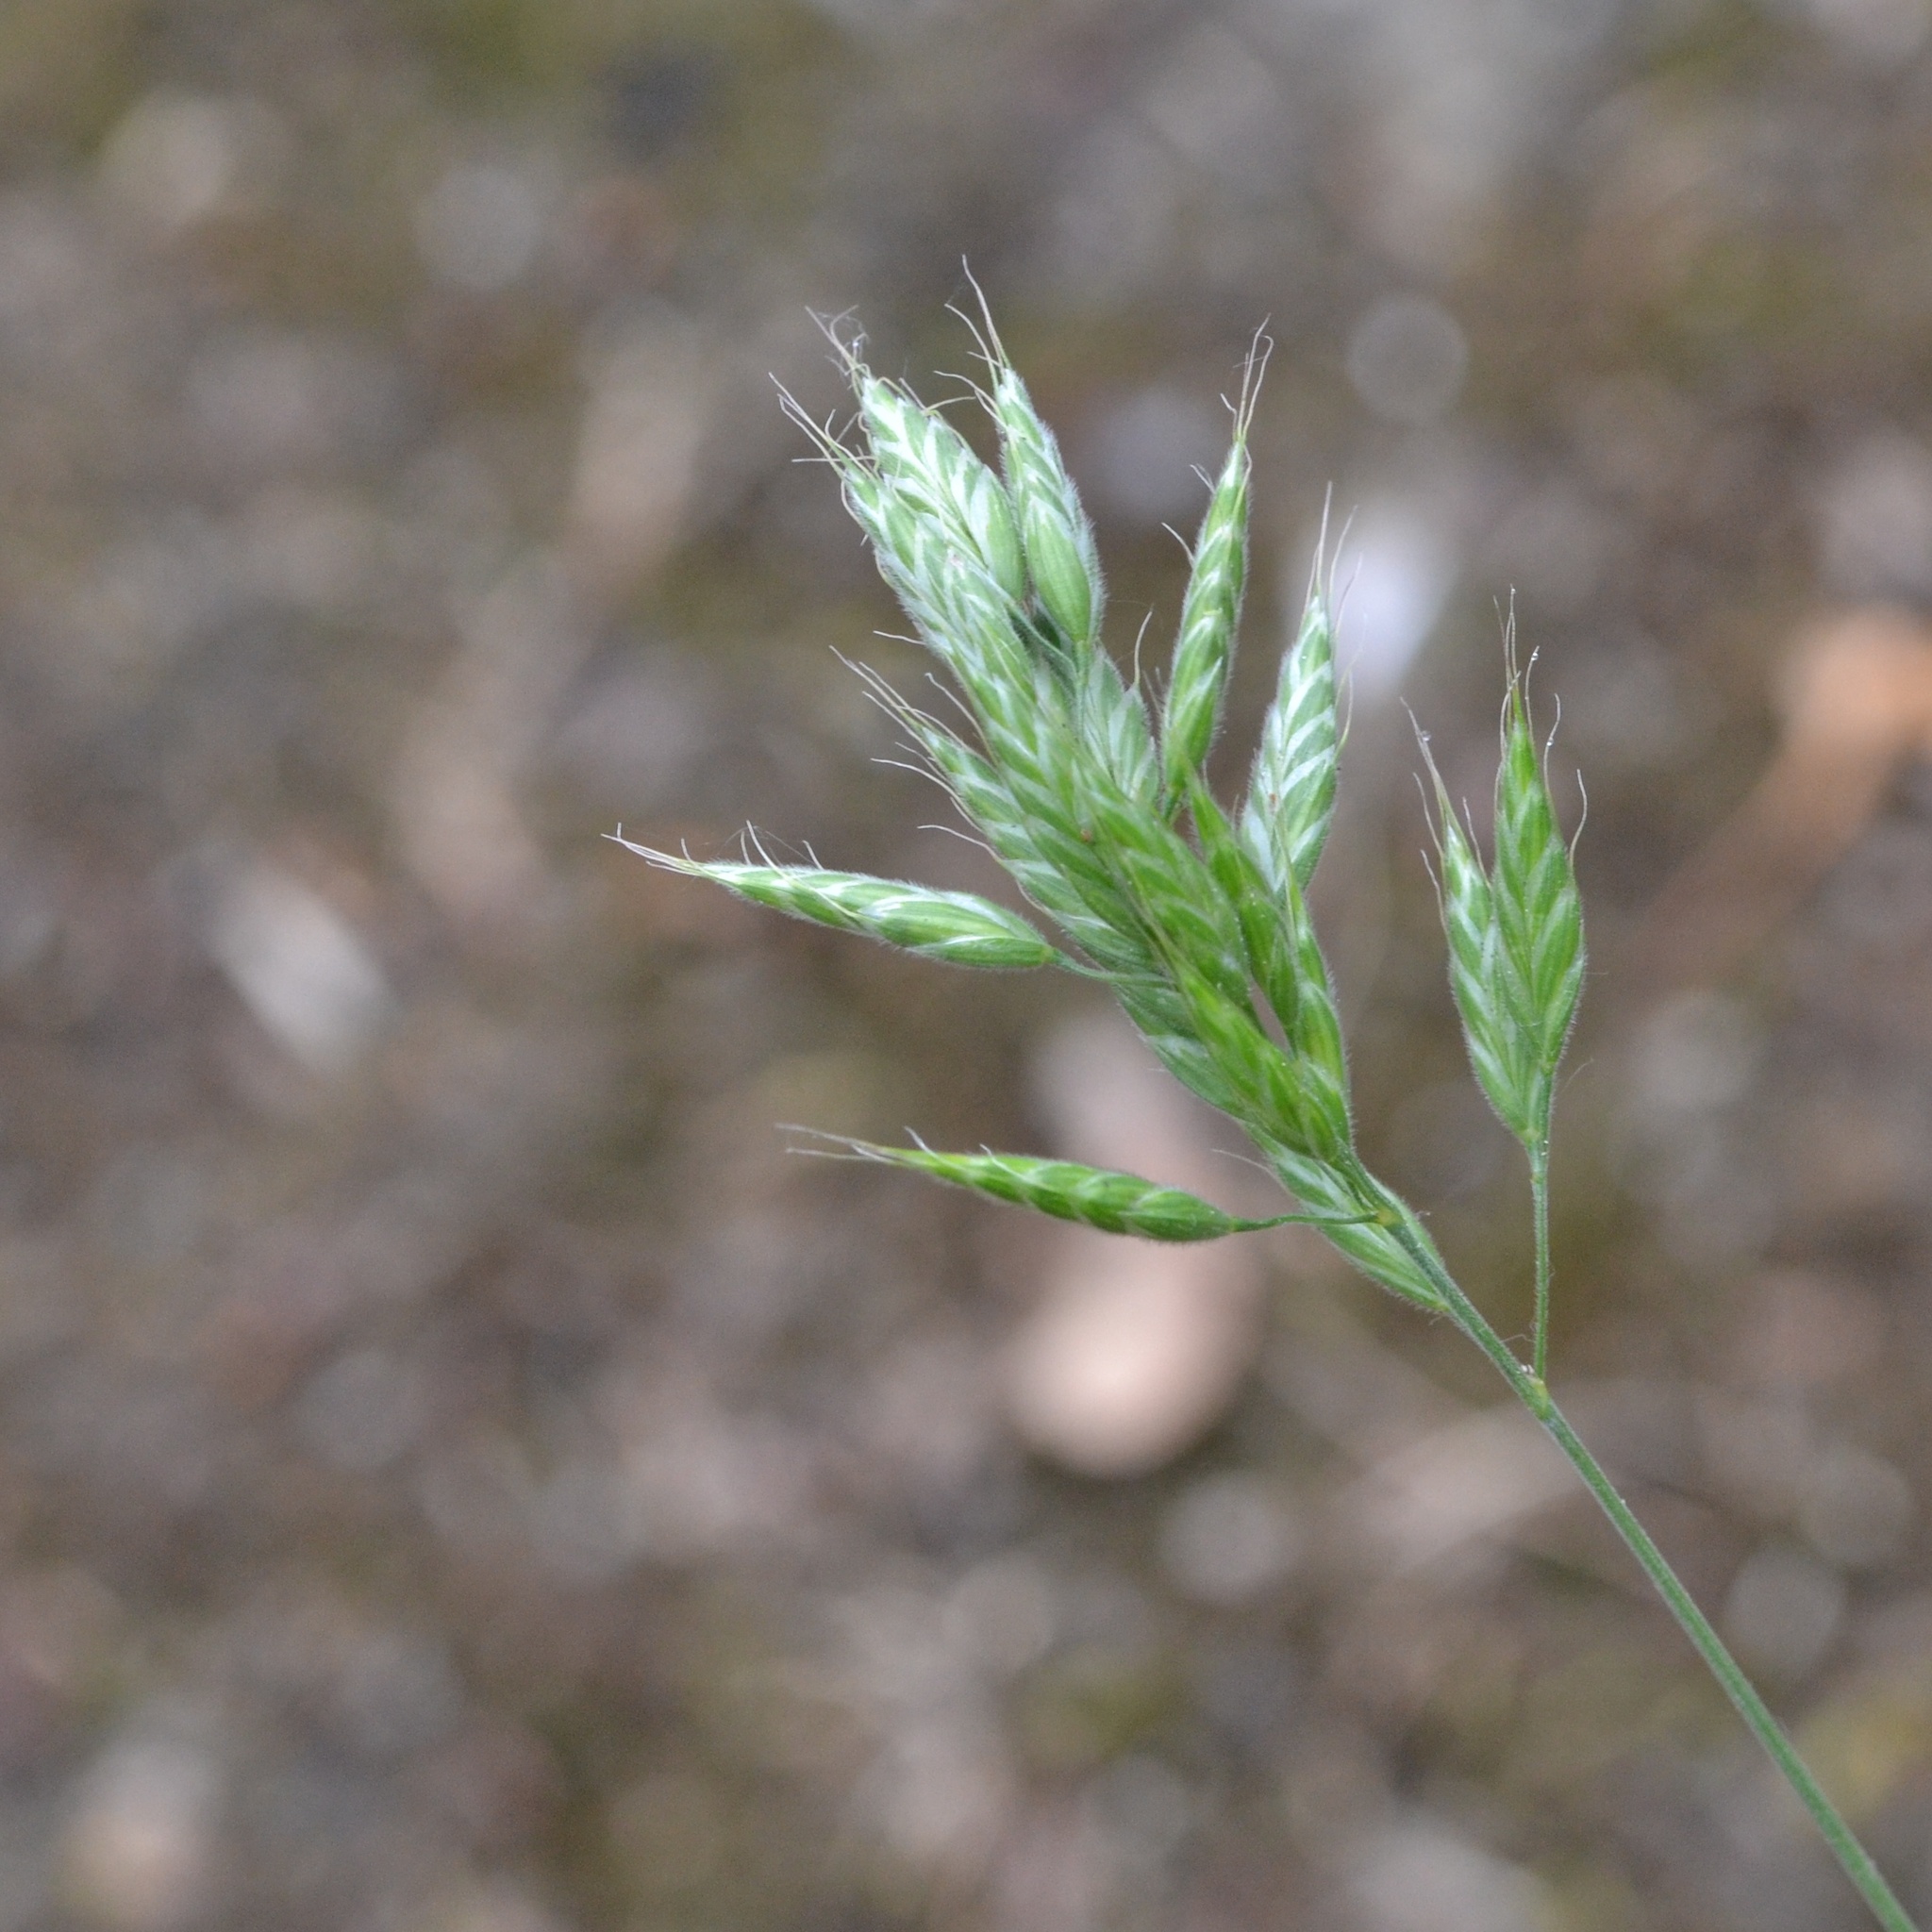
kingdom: Plantae
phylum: Tracheophyta
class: Liliopsida
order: Poales
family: Poaceae
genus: Bromus
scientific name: Bromus hordeaceus
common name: Soft brome
